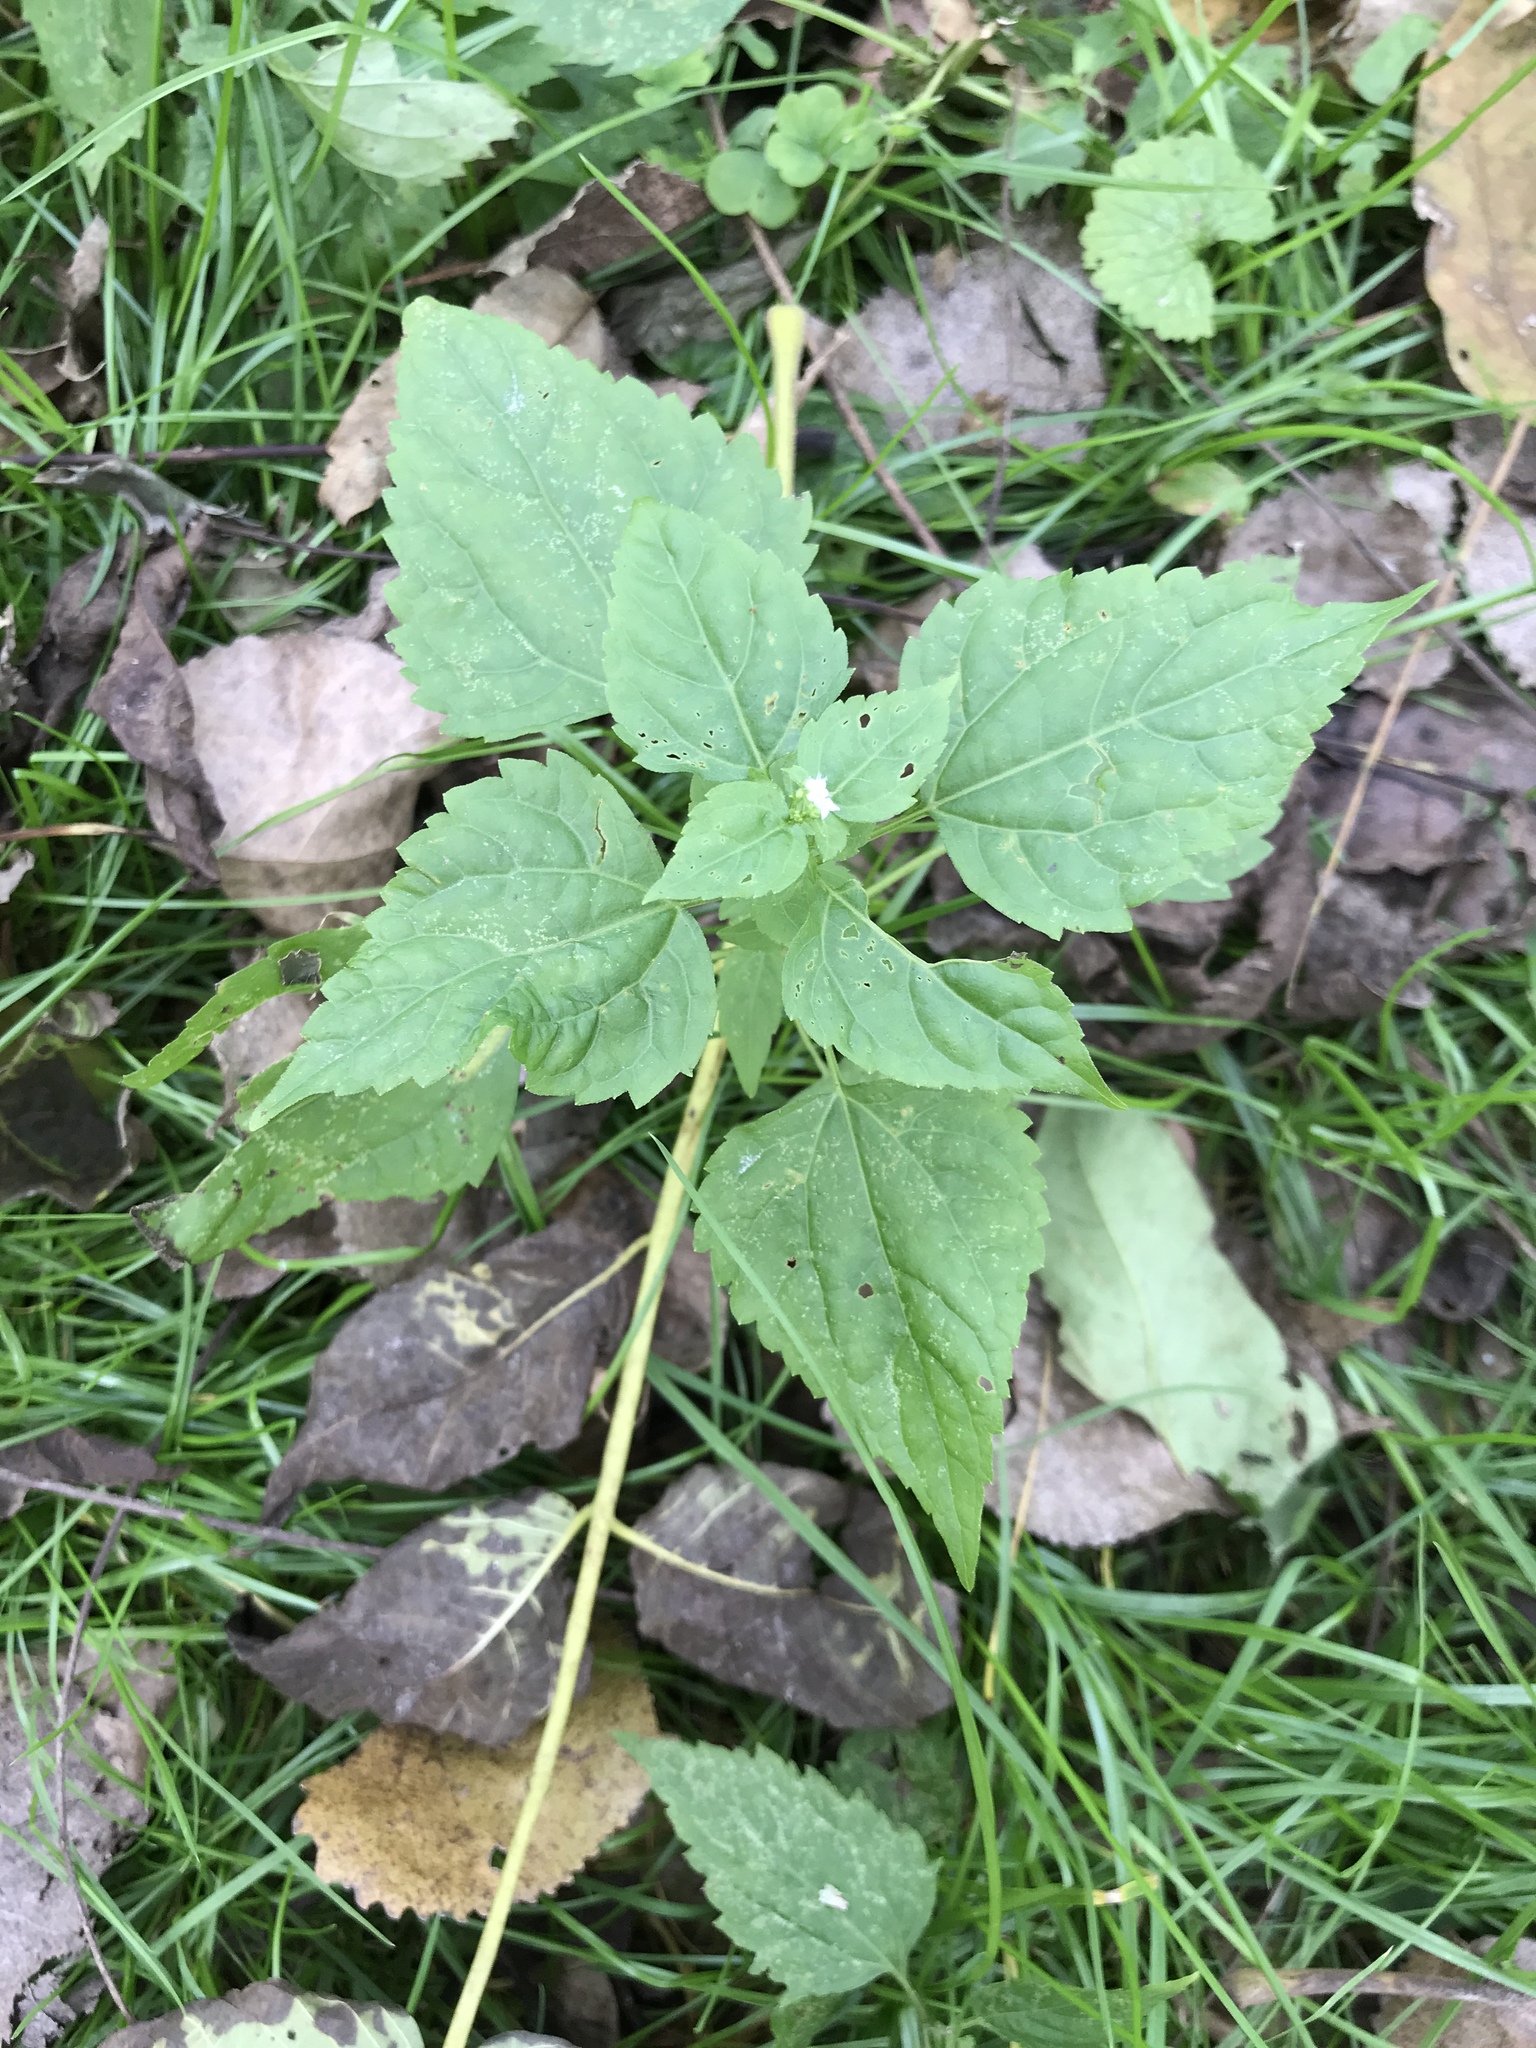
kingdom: Plantae
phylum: Tracheophyta
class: Magnoliopsida
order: Asterales
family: Asteraceae
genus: Ageratina
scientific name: Ageratina altissima
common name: White snakeroot
